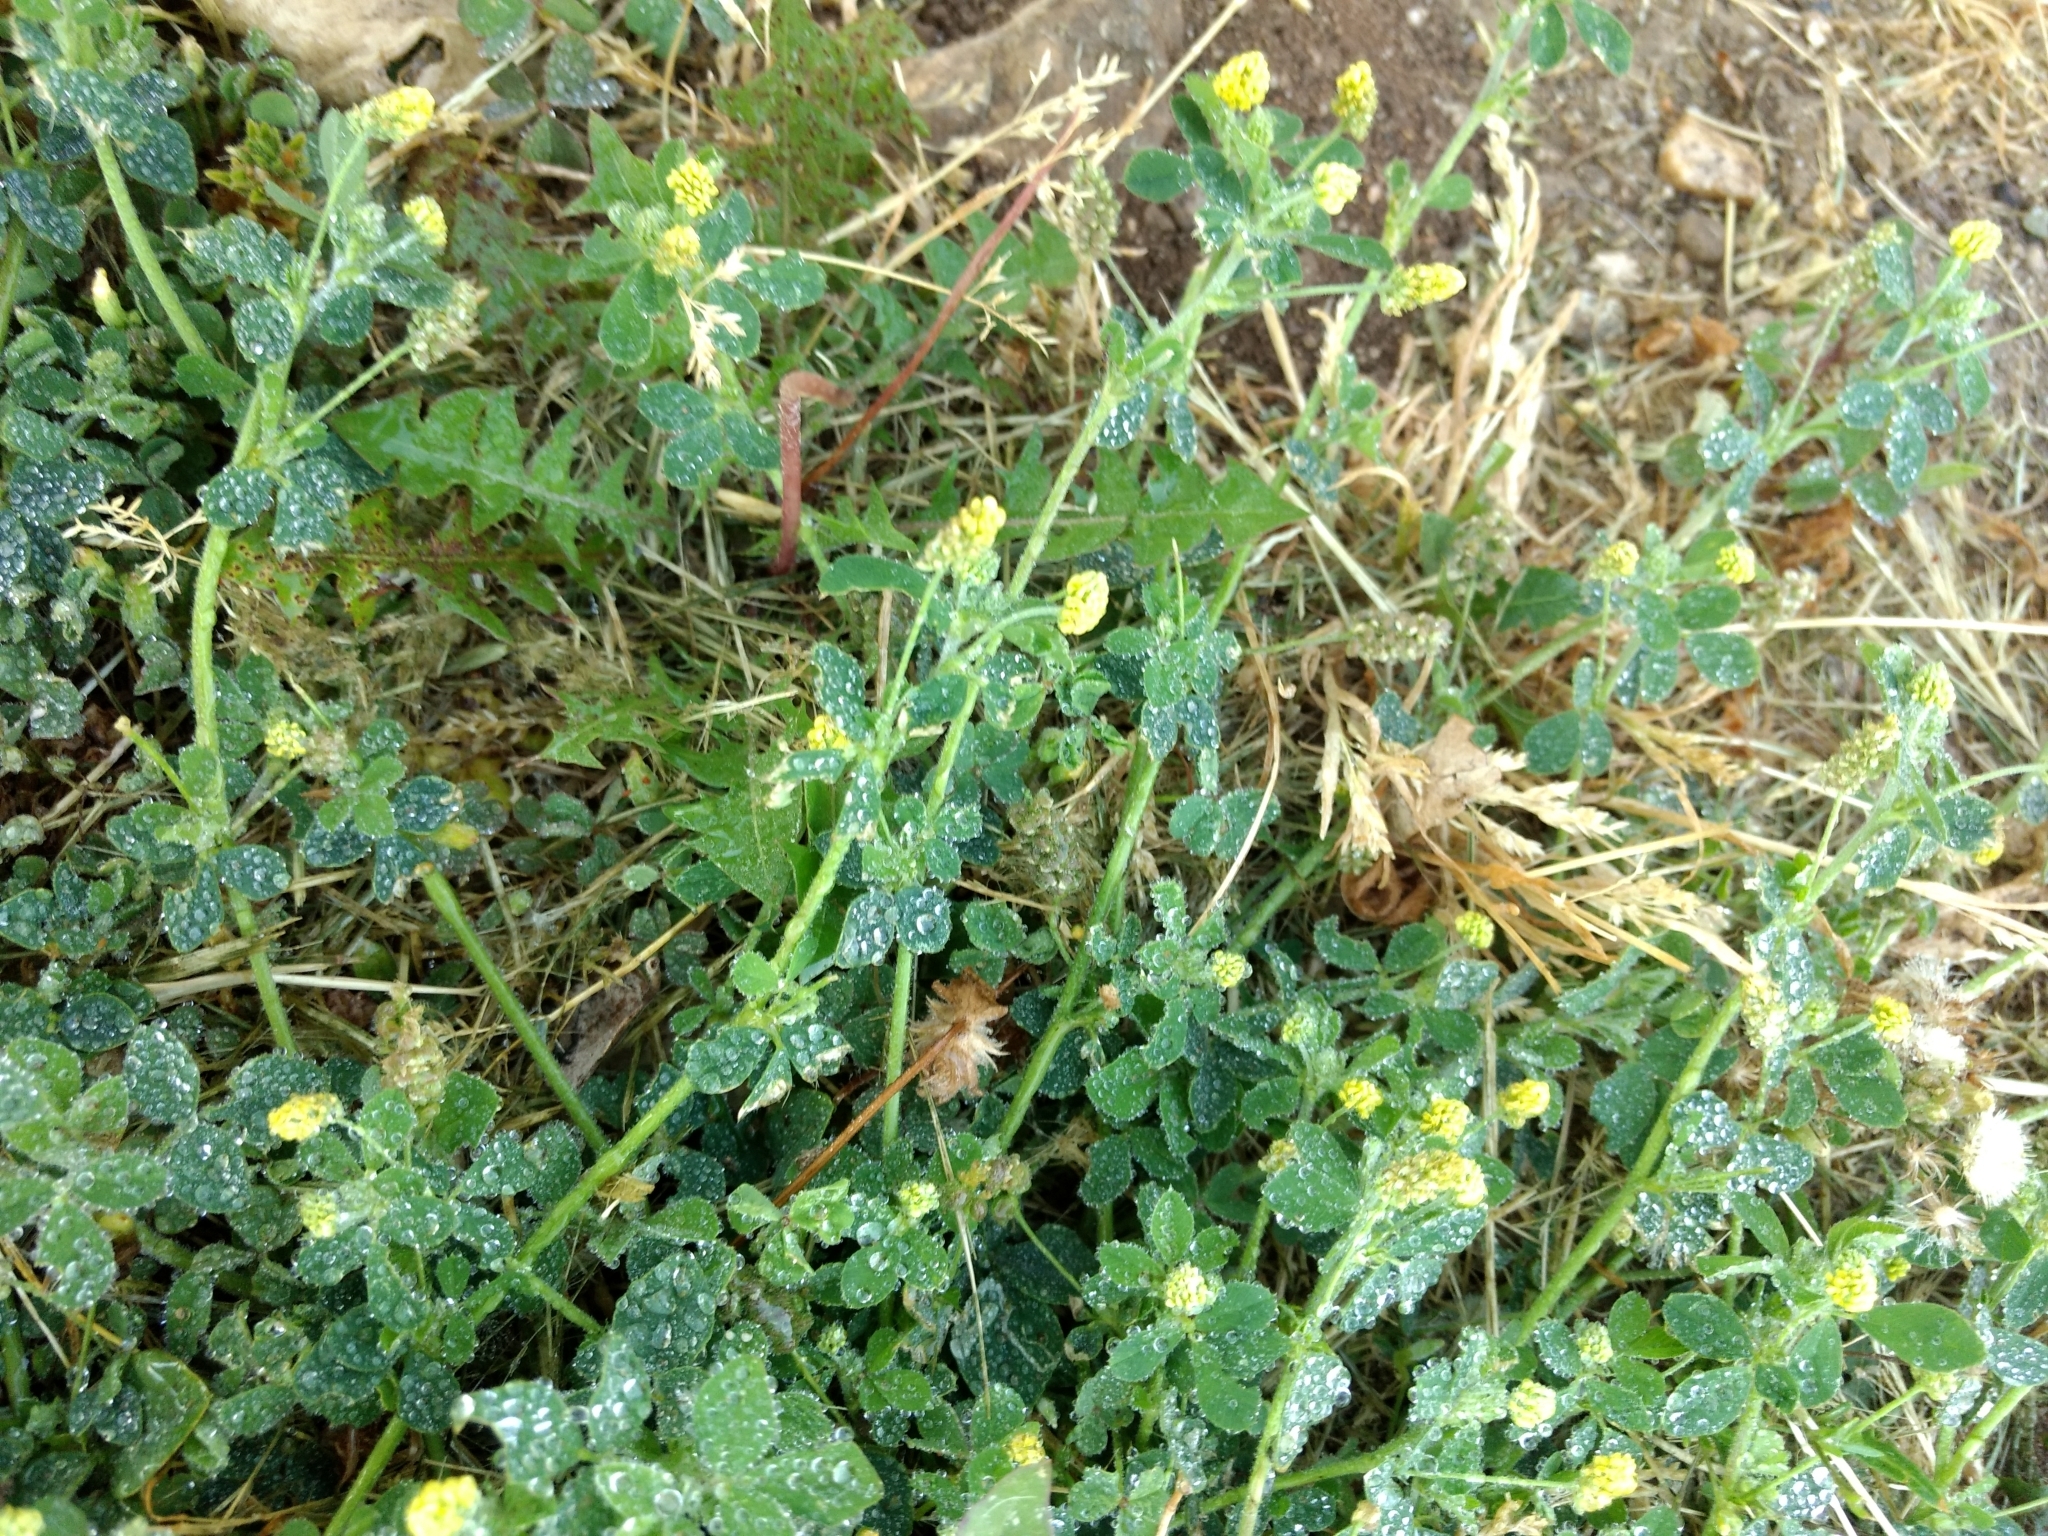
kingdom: Plantae
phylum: Tracheophyta
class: Magnoliopsida
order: Fabales
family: Fabaceae
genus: Medicago
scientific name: Medicago lupulina
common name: Black medick
